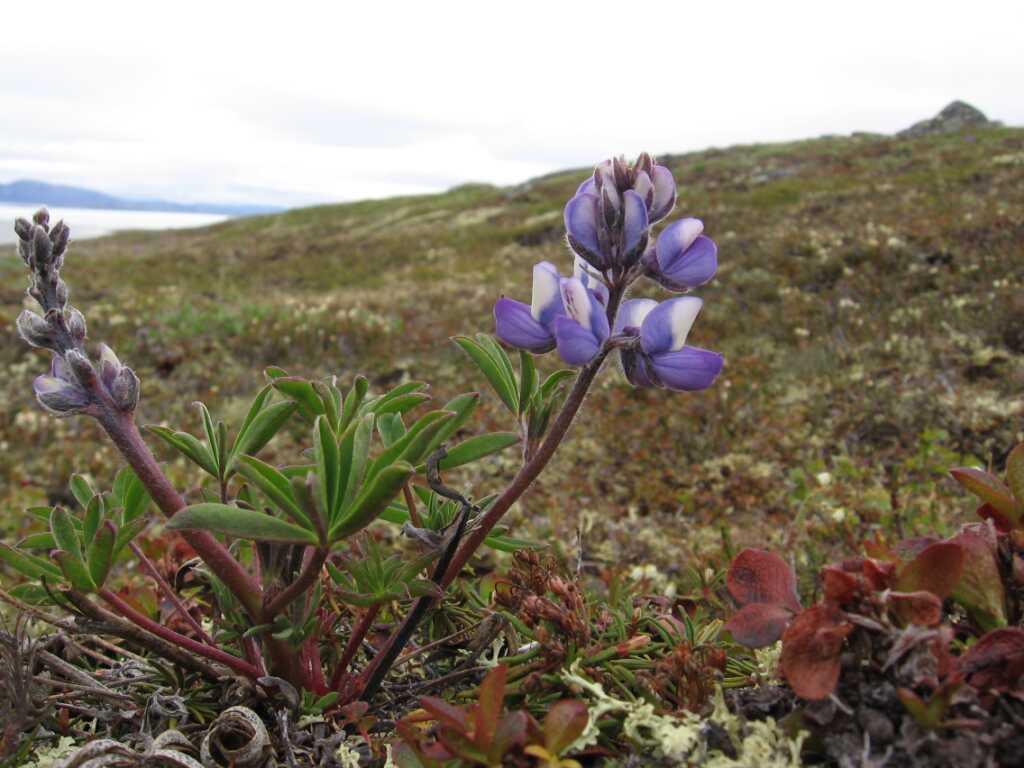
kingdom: Plantae
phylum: Tracheophyta
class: Magnoliopsida
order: Fabales
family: Fabaceae
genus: Lupinus
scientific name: Lupinus arcticus
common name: Arctic lupine
